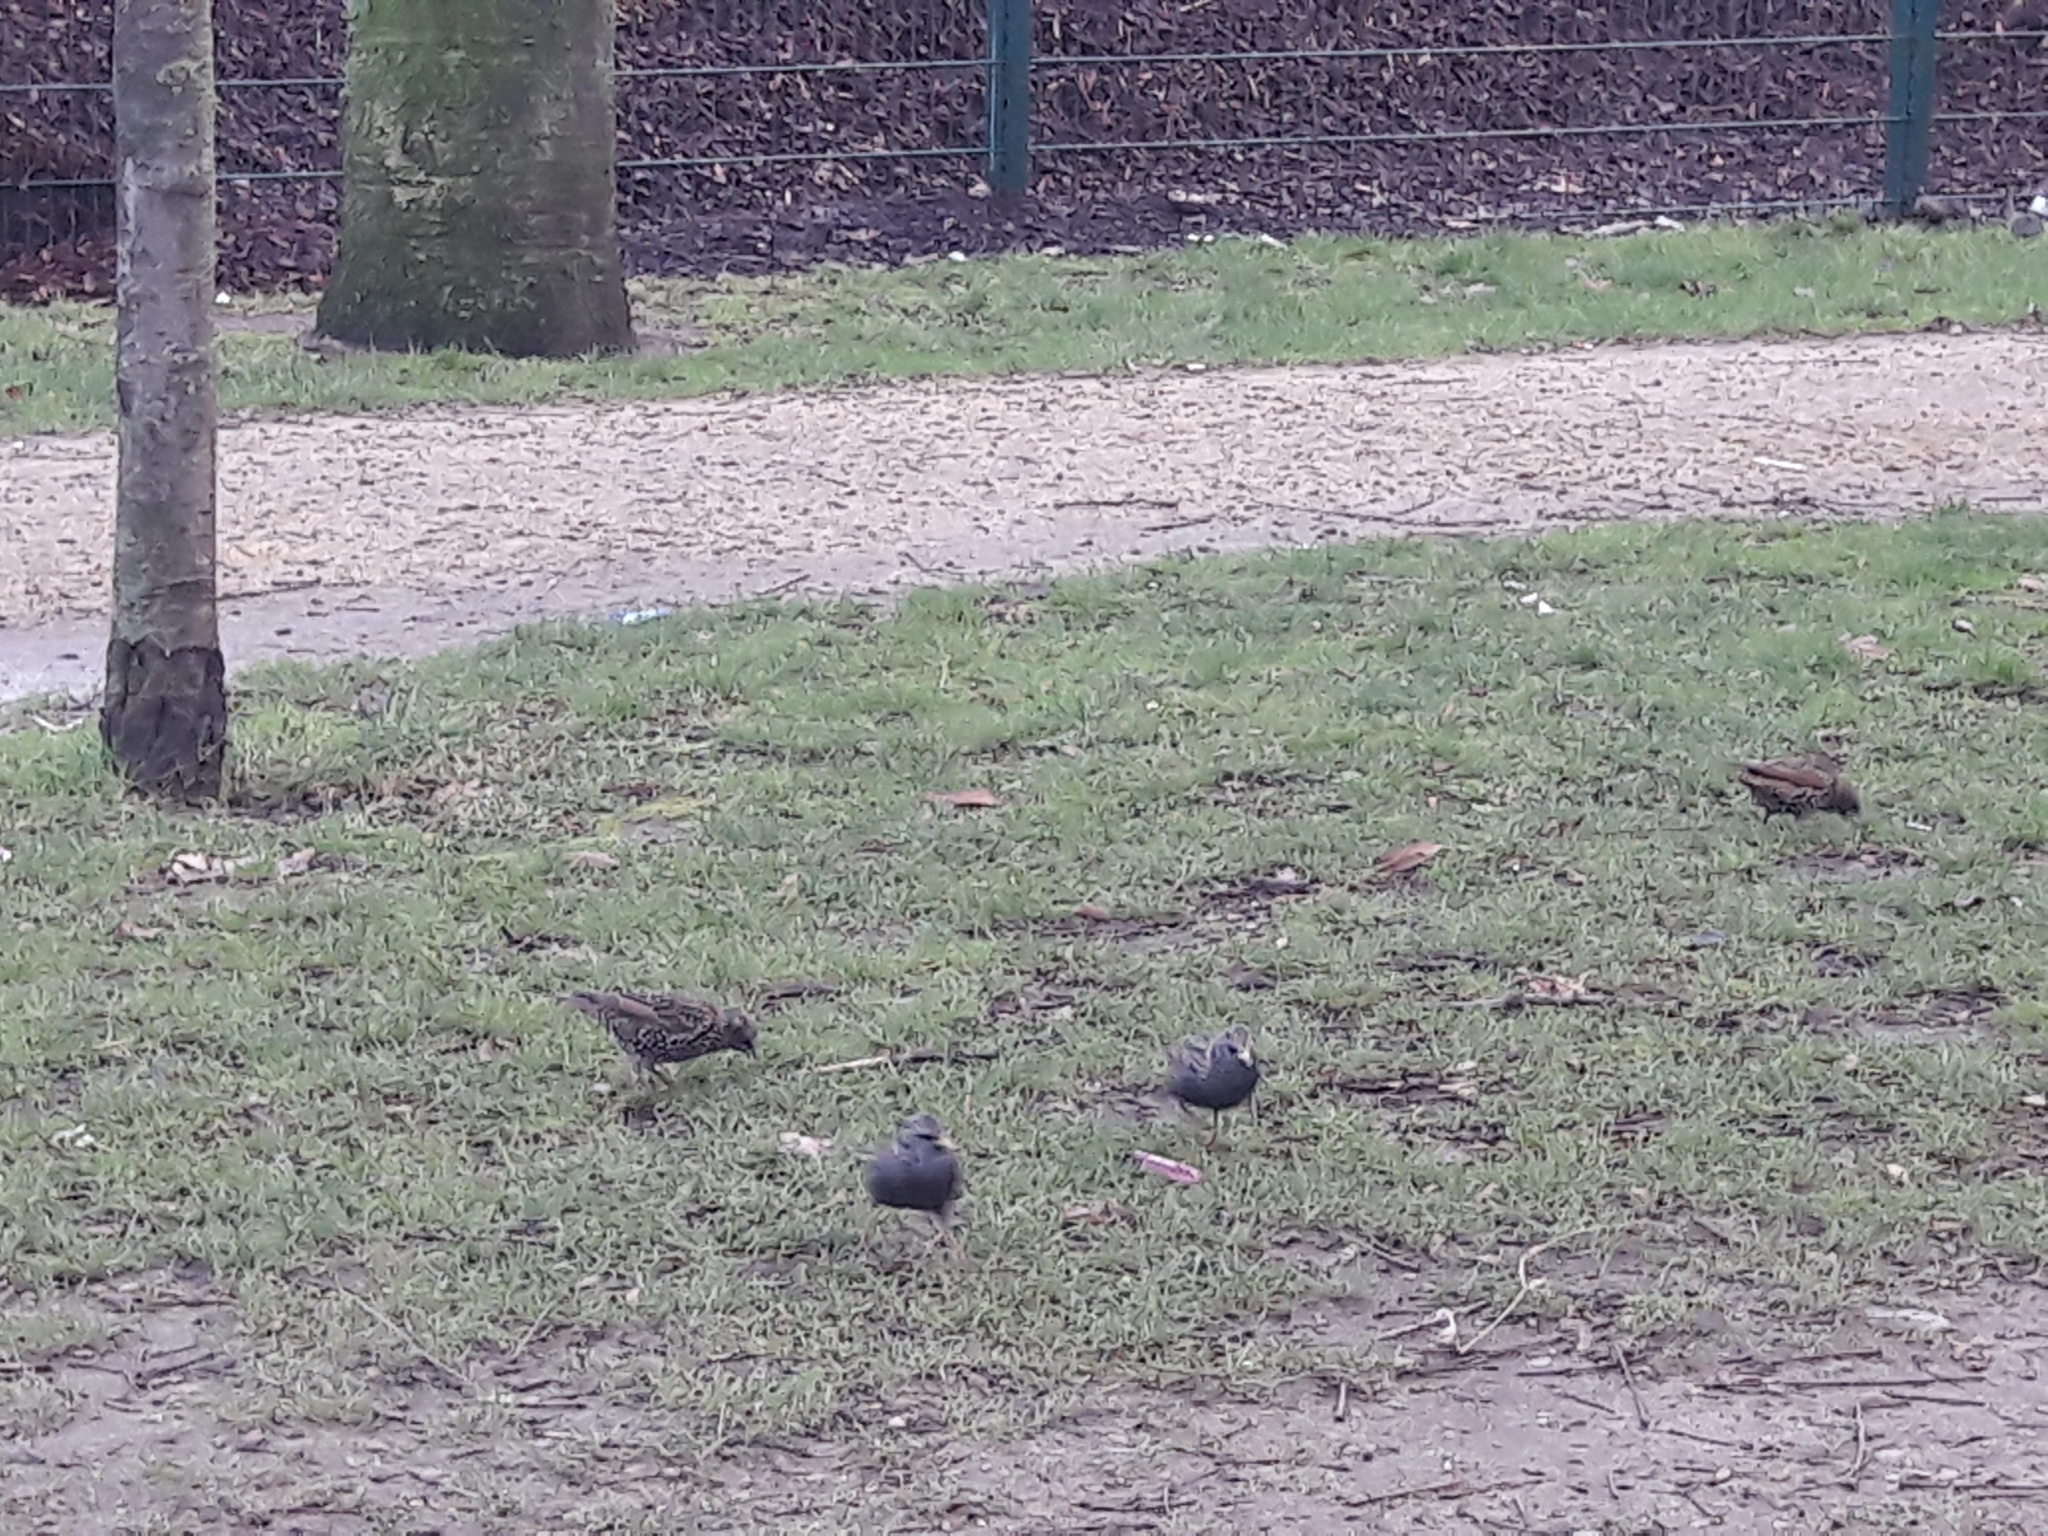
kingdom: Animalia
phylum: Chordata
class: Aves
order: Passeriformes
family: Sturnidae
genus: Sturnus
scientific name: Sturnus vulgaris
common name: Common starling
